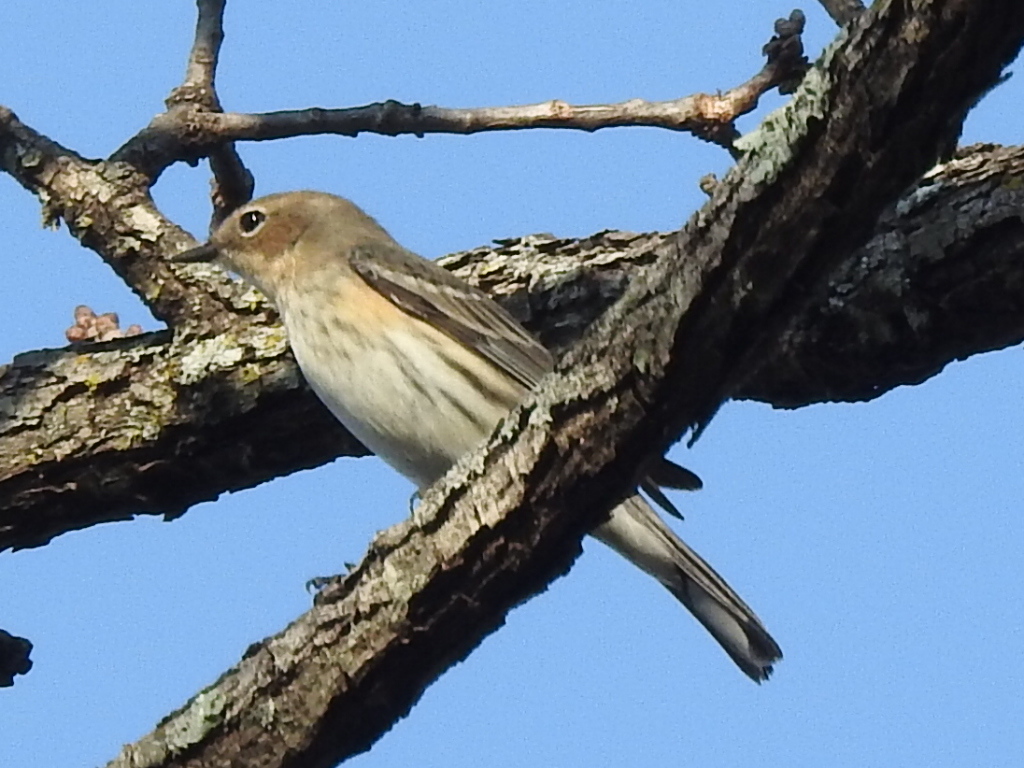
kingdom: Animalia
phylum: Chordata
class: Aves
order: Passeriformes
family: Parulidae
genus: Setophaga
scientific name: Setophaga coronata
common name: Myrtle warbler
